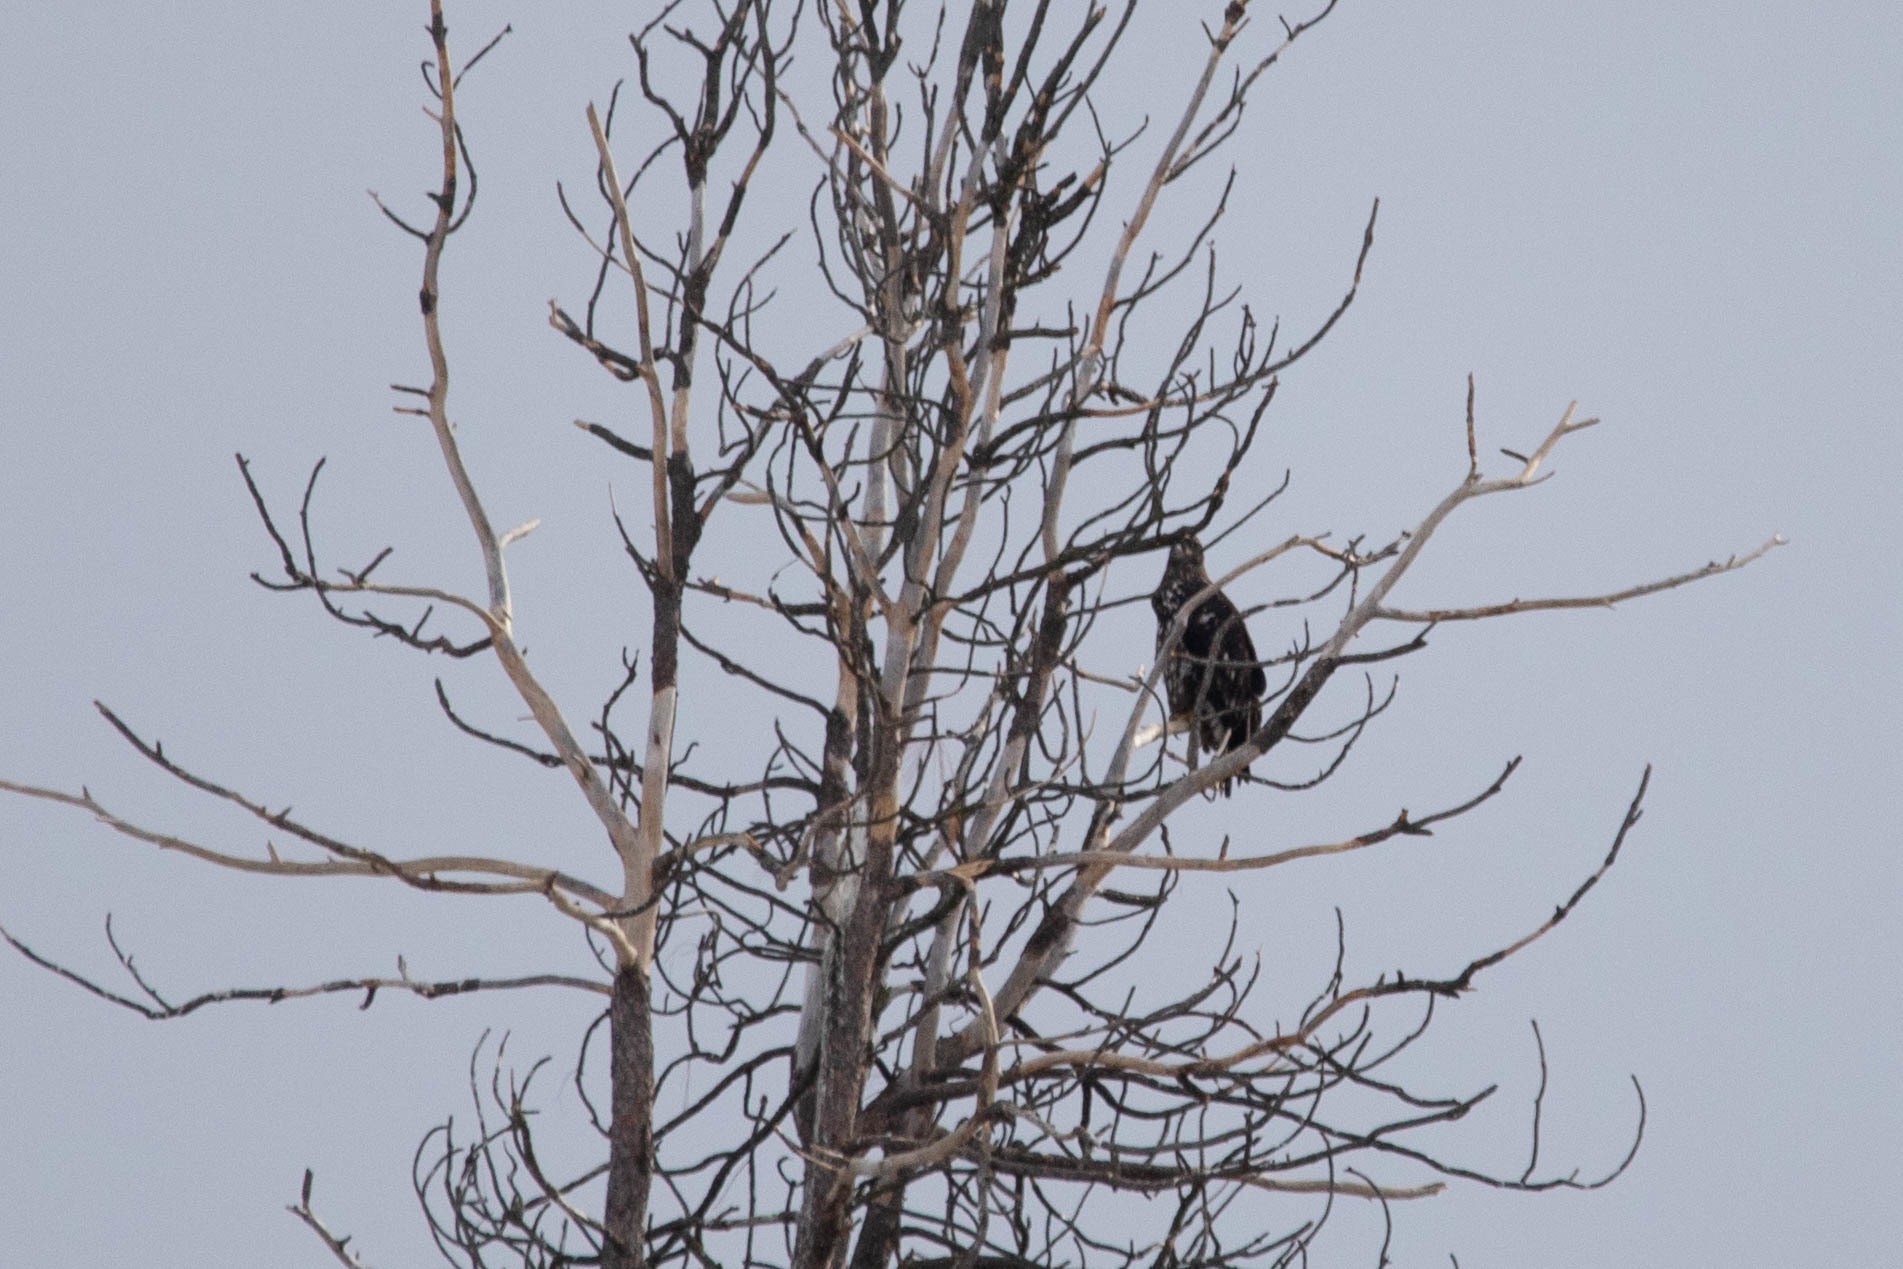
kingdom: Animalia
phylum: Chordata
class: Aves
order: Accipitriformes
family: Accipitridae
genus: Haliaeetus
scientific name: Haliaeetus leucocephalus
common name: Bald eagle
